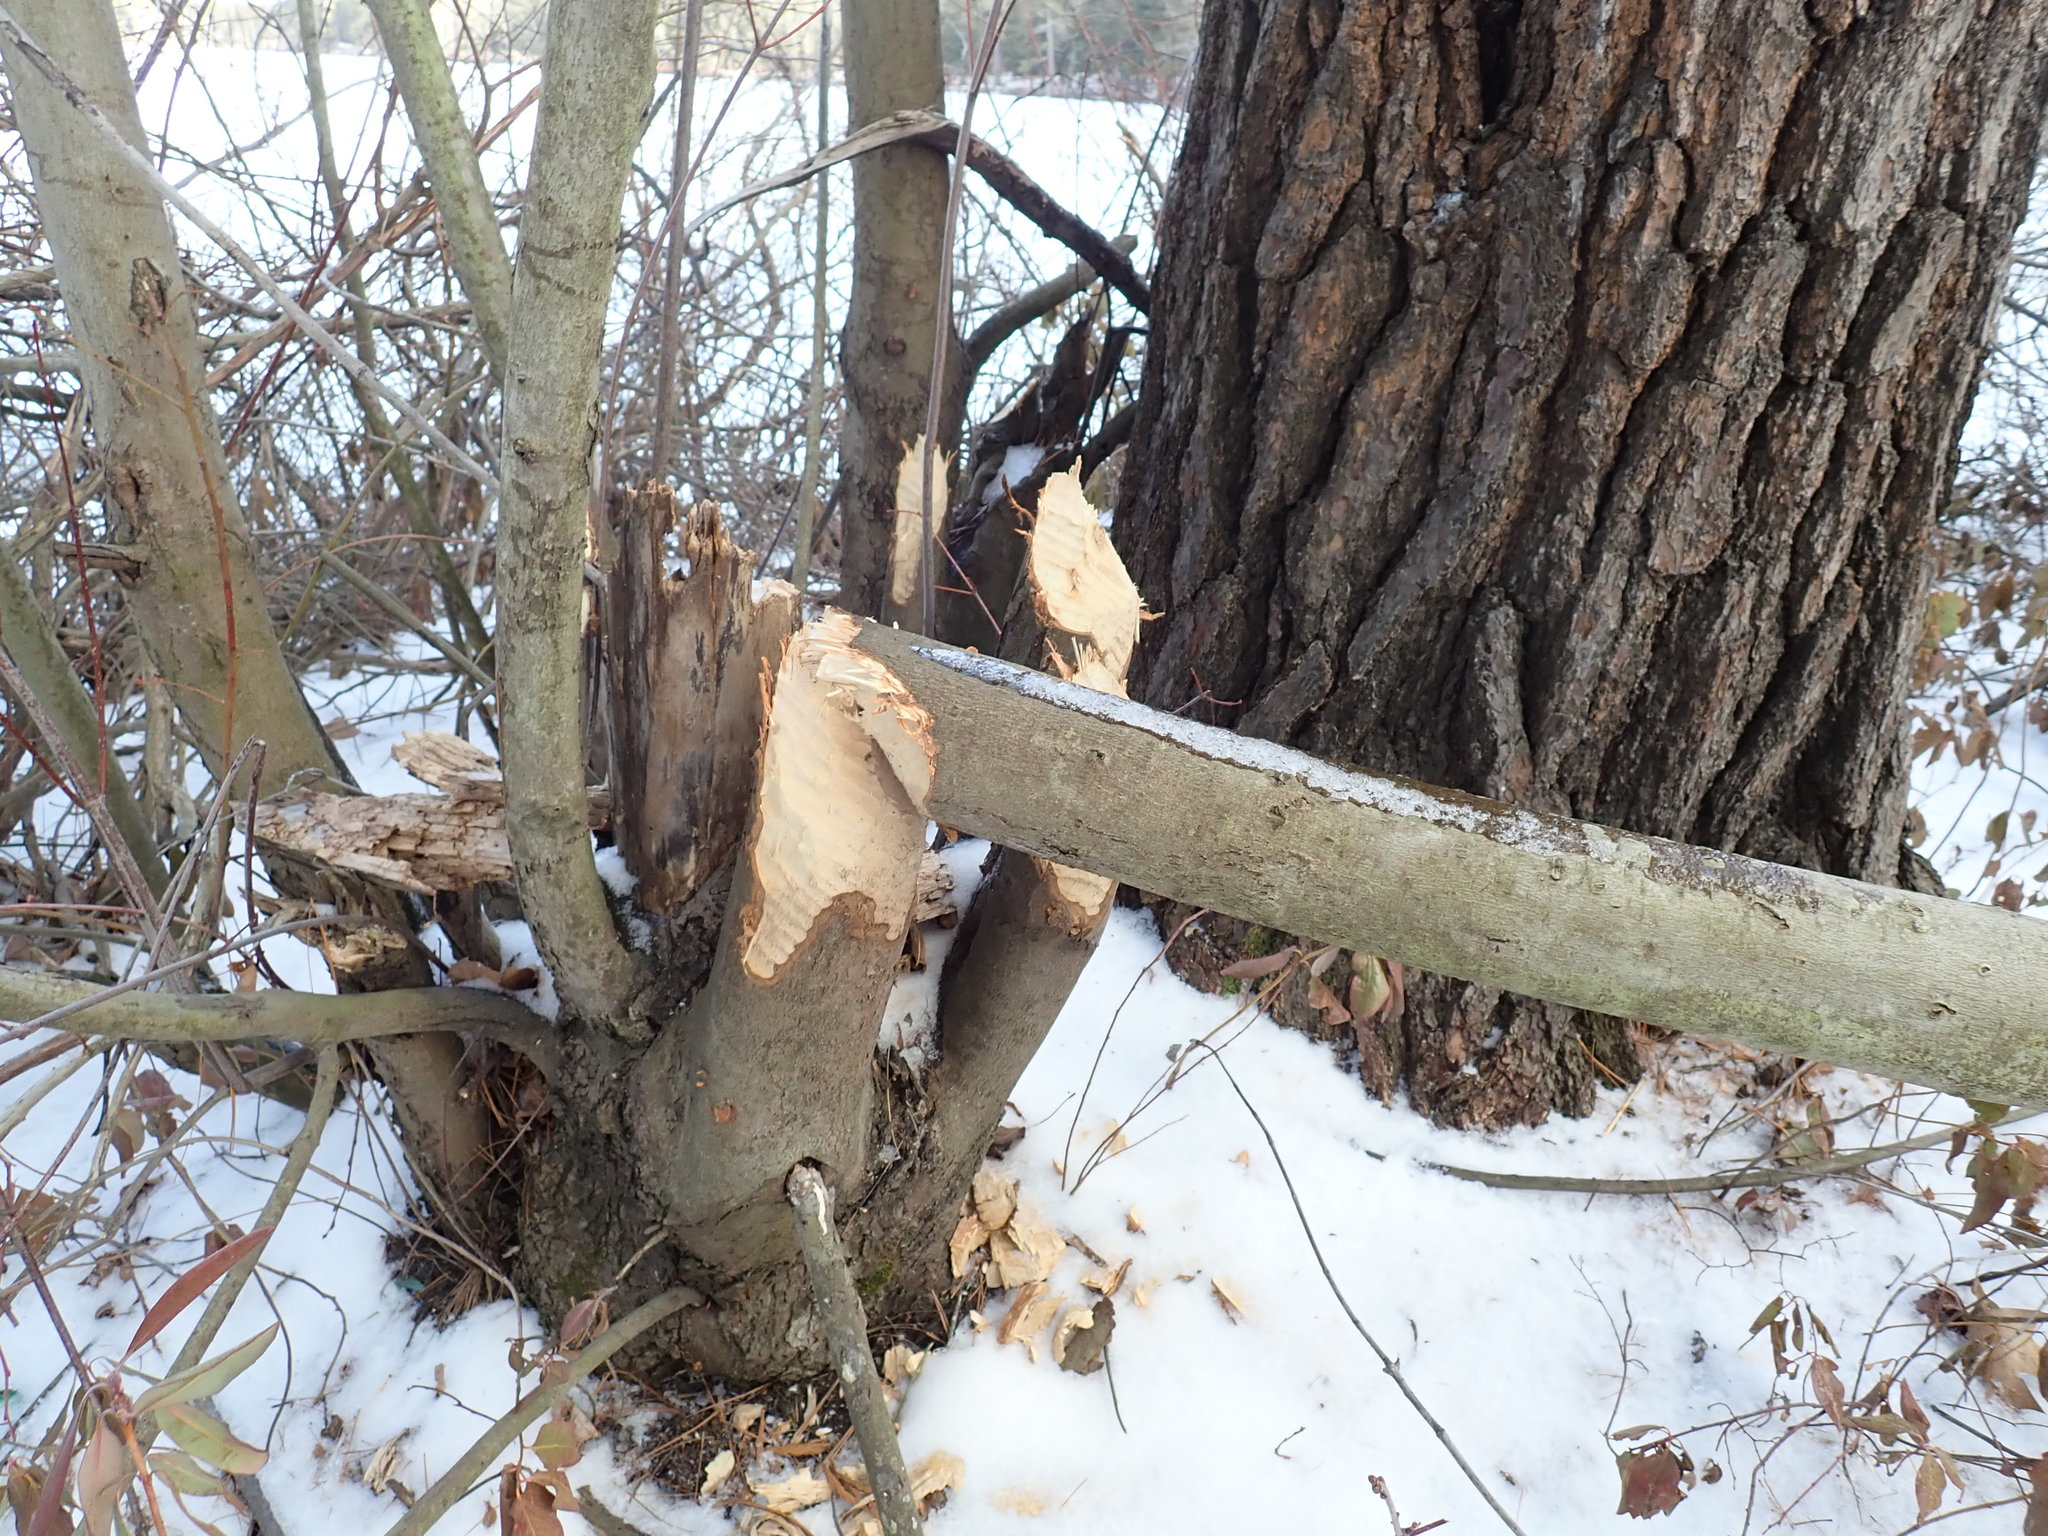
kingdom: Animalia
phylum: Chordata
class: Mammalia
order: Rodentia
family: Castoridae
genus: Castor
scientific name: Castor canadensis
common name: American beaver
